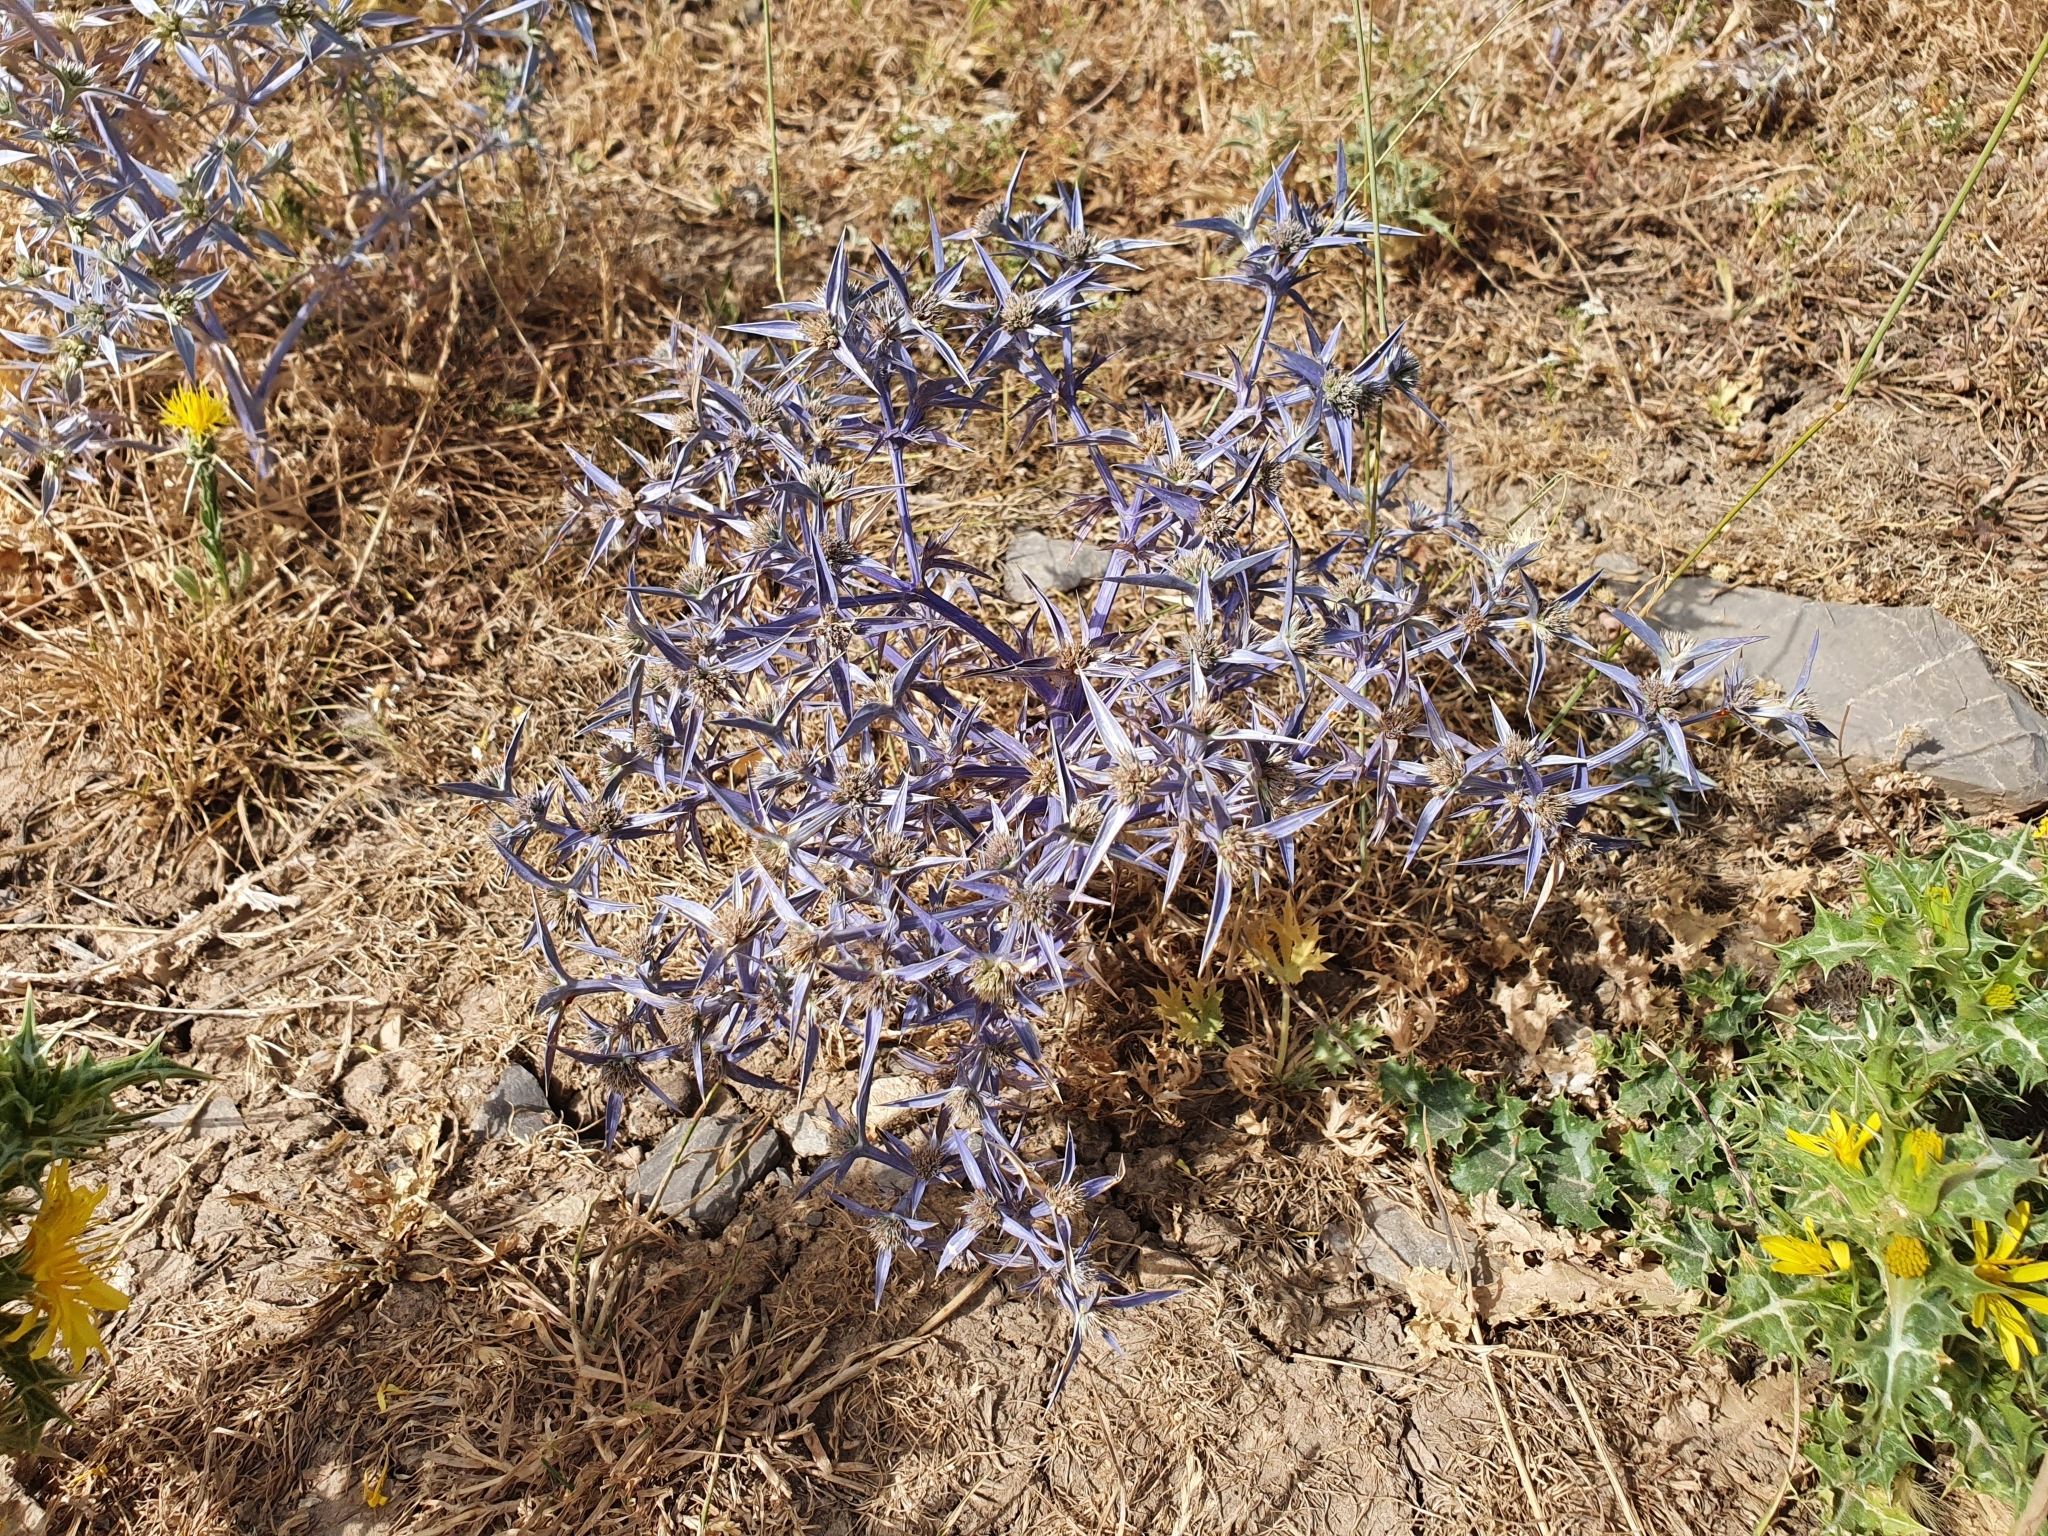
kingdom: Plantae
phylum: Tracheophyta
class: Magnoliopsida
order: Apiales
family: Apiaceae
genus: Eryngium
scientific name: Eryngium triquetrum
